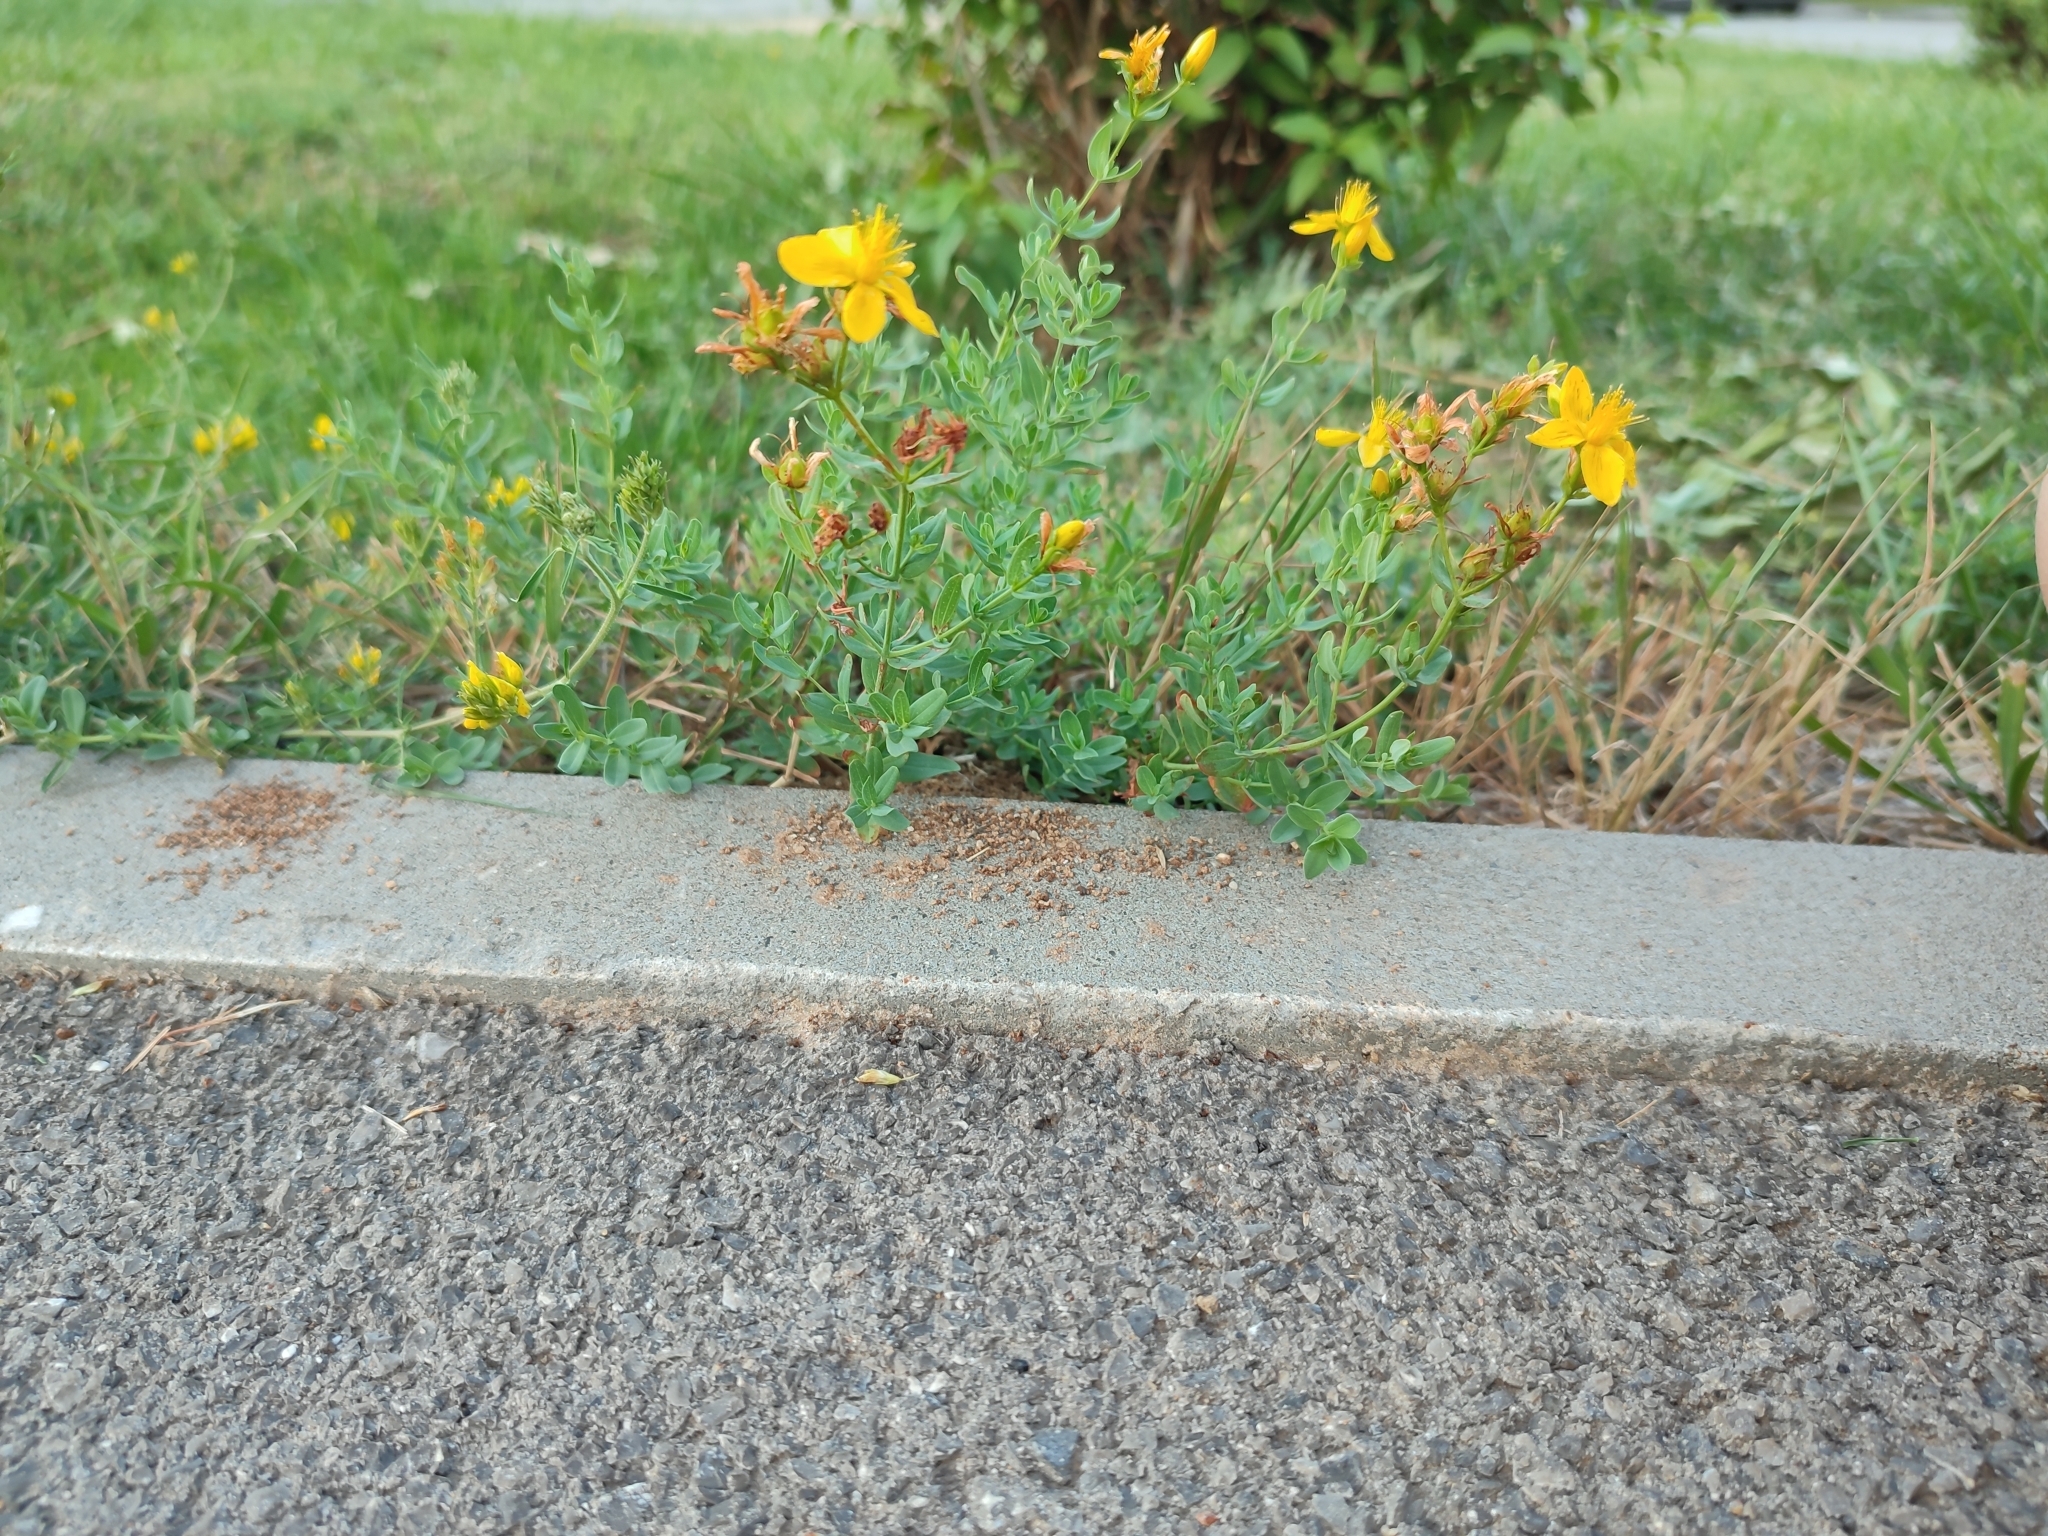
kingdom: Plantae
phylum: Tracheophyta
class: Magnoliopsida
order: Malpighiales
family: Hypericaceae
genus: Hypericum
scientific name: Hypericum perforatum
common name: Common st. johnswort
